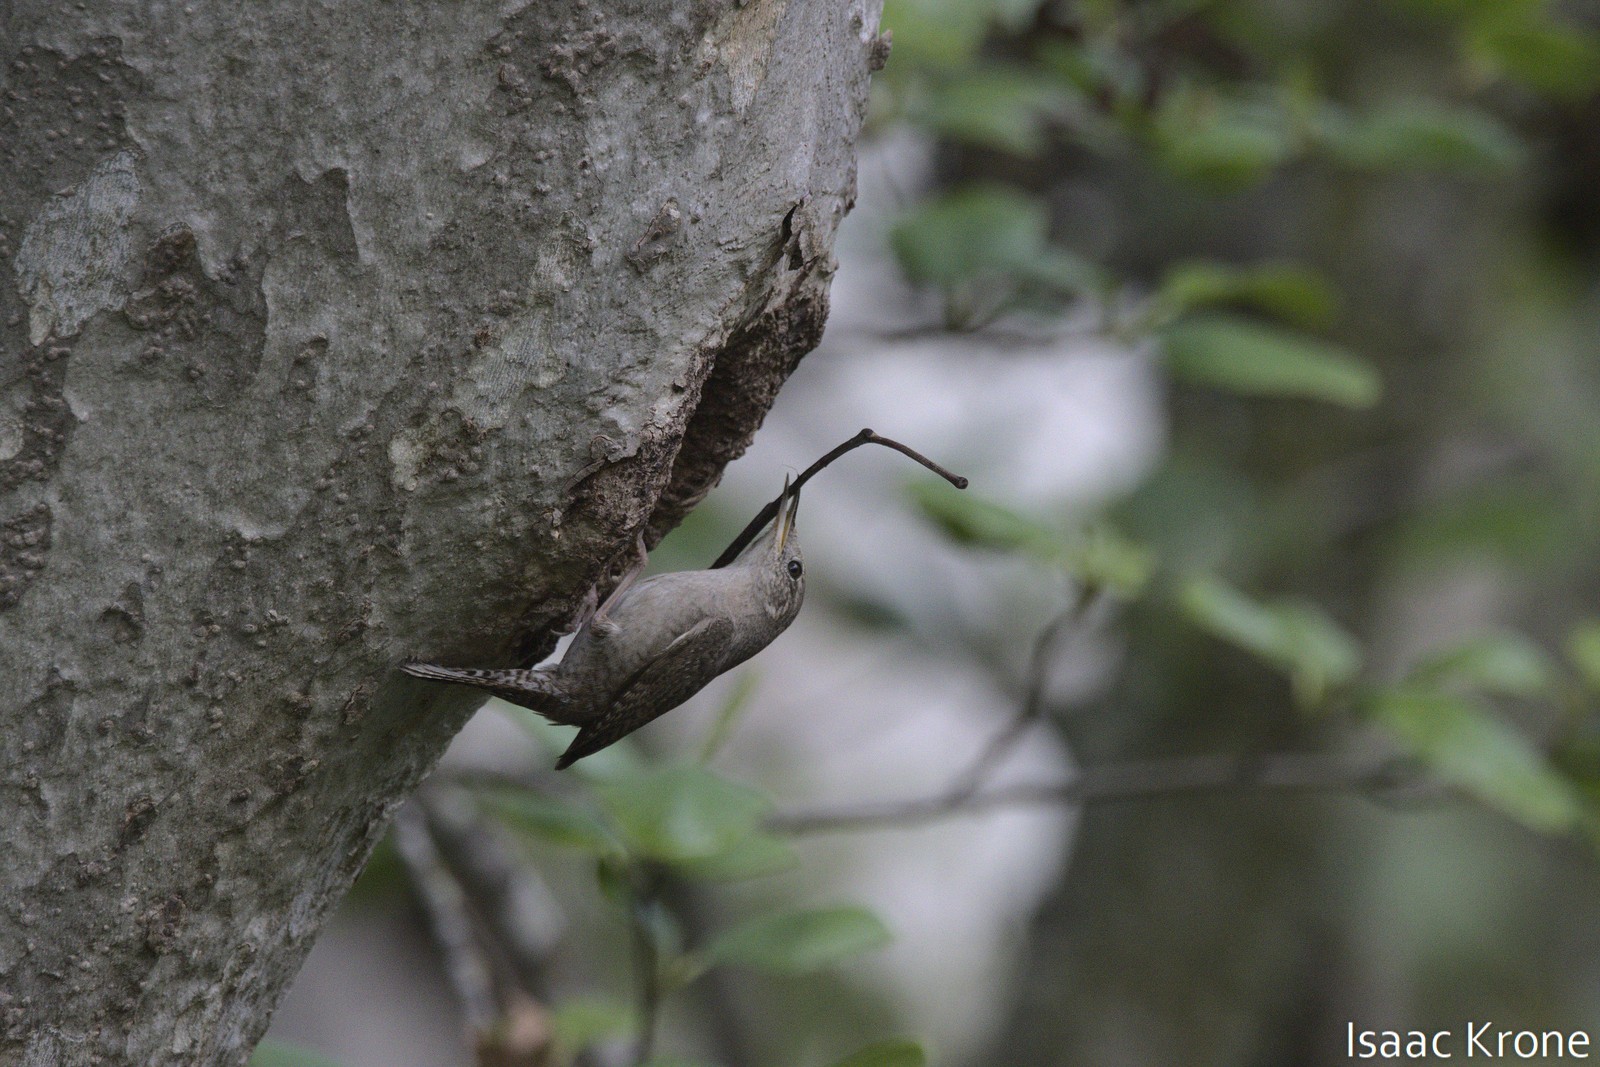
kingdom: Animalia
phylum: Chordata
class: Aves
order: Passeriformes
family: Troglodytidae
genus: Troglodytes
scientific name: Troglodytes aedon
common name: House wren
